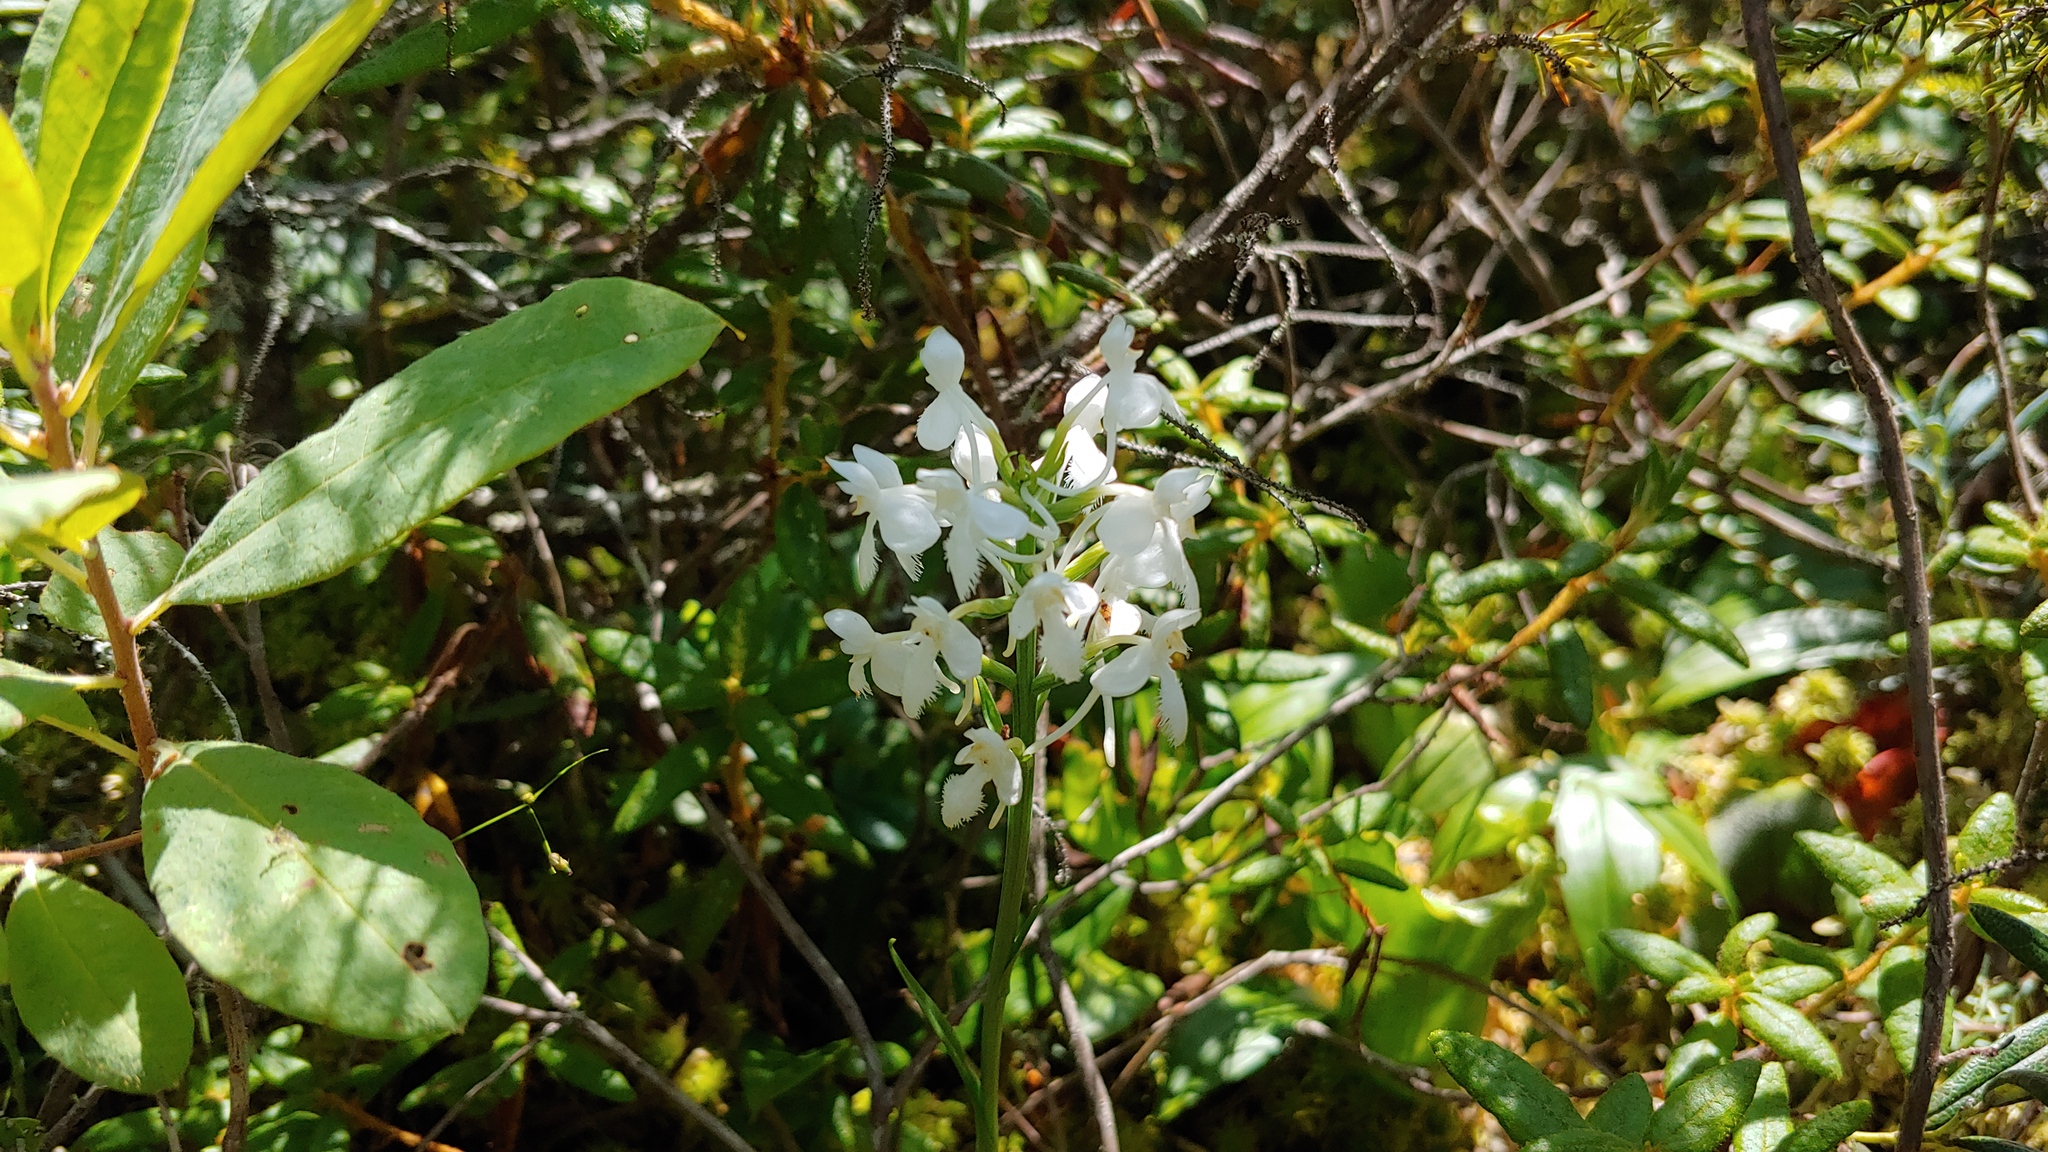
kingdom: Plantae
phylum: Tracheophyta
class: Liliopsida
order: Asparagales
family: Orchidaceae
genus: Platanthera
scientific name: Platanthera blephariglottis
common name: White fringed orchid
